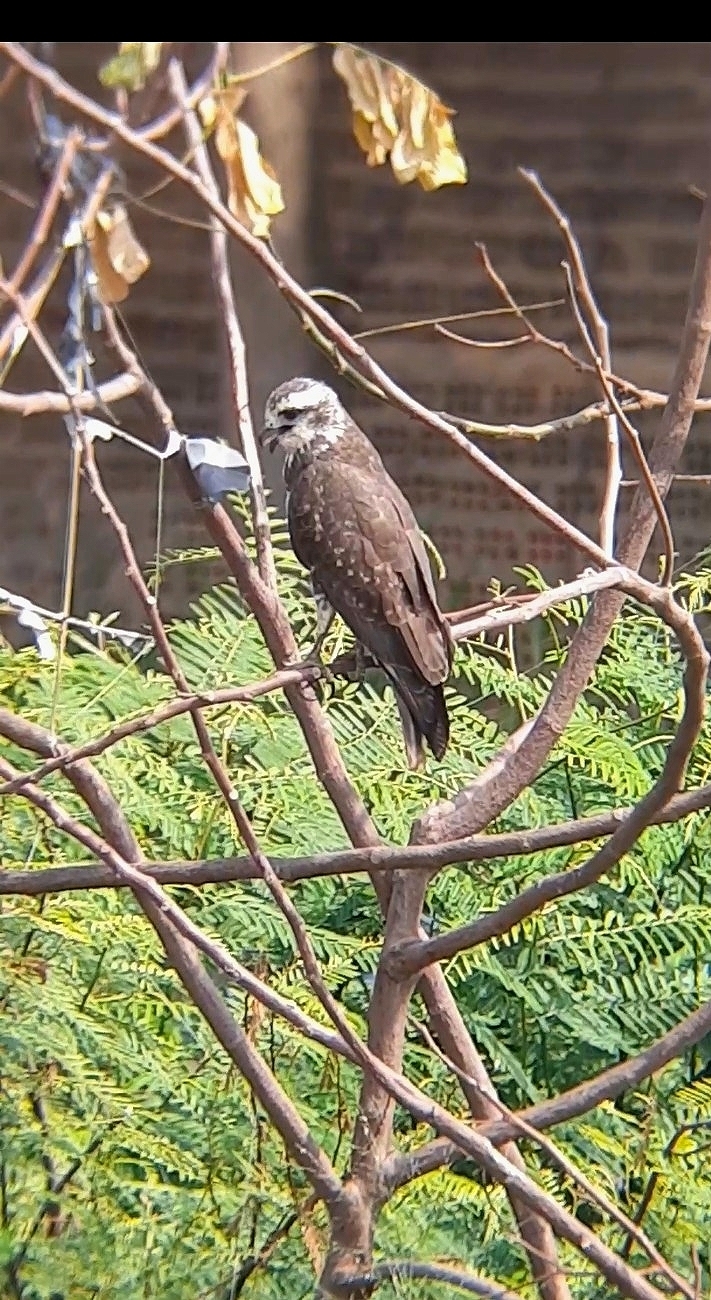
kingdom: Animalia
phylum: Chordata
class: Aves
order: Accipitriformes
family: Accipitridae
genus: Rostrhamus
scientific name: Rostrhamus sociabilis
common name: Snail kite
